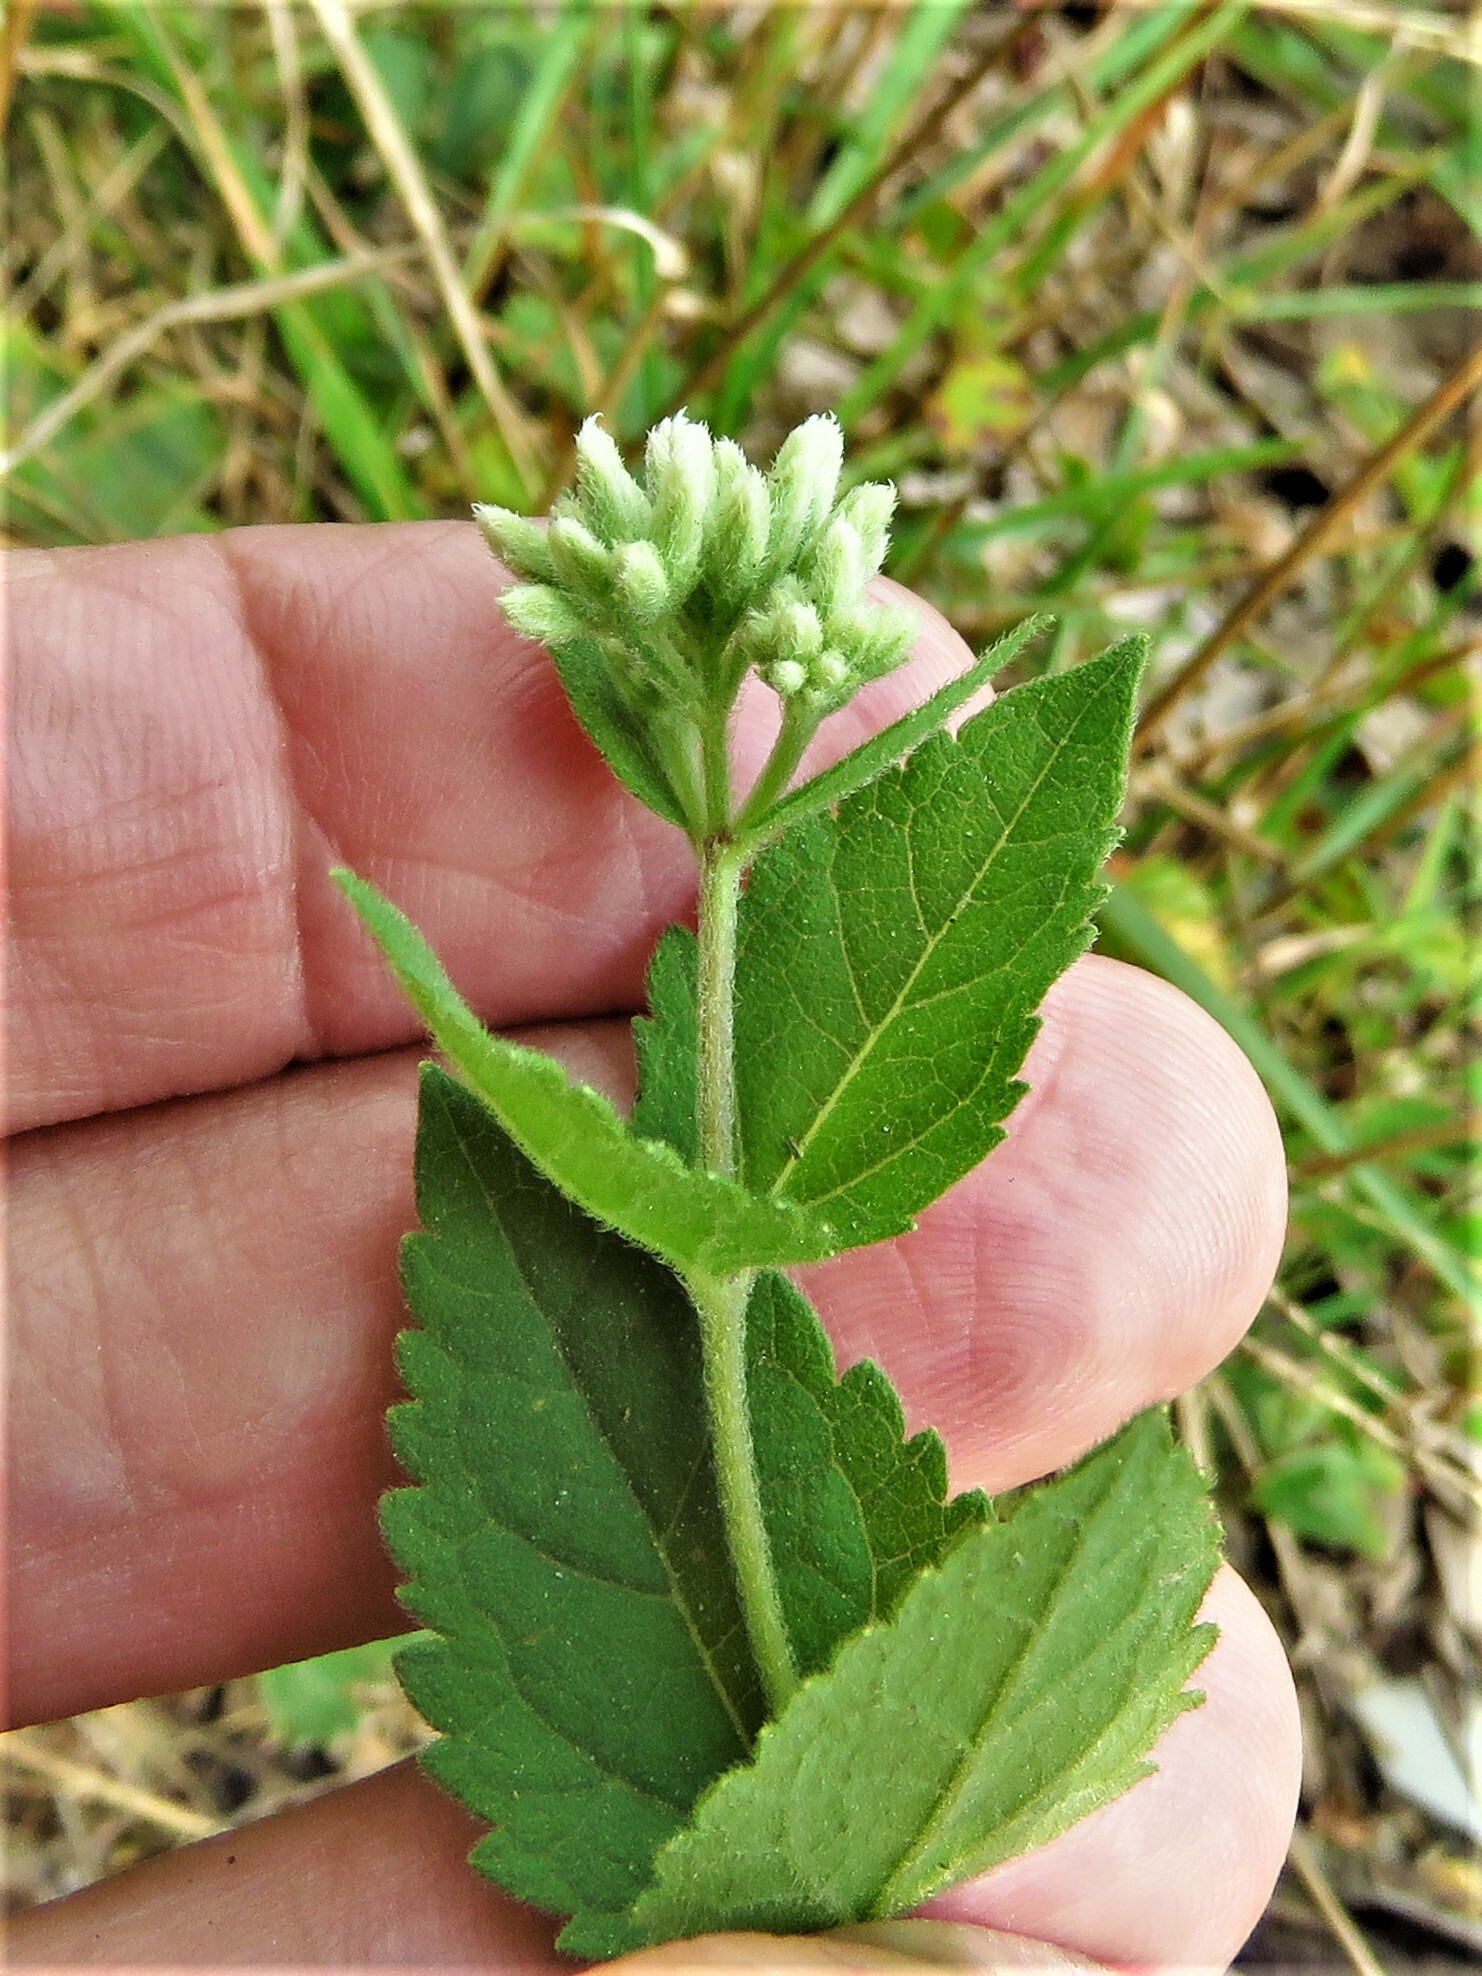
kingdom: Plantae
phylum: Tracheophyta
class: Magnoliopsida
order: Asterales
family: Asteraceae
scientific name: Asteraceae
